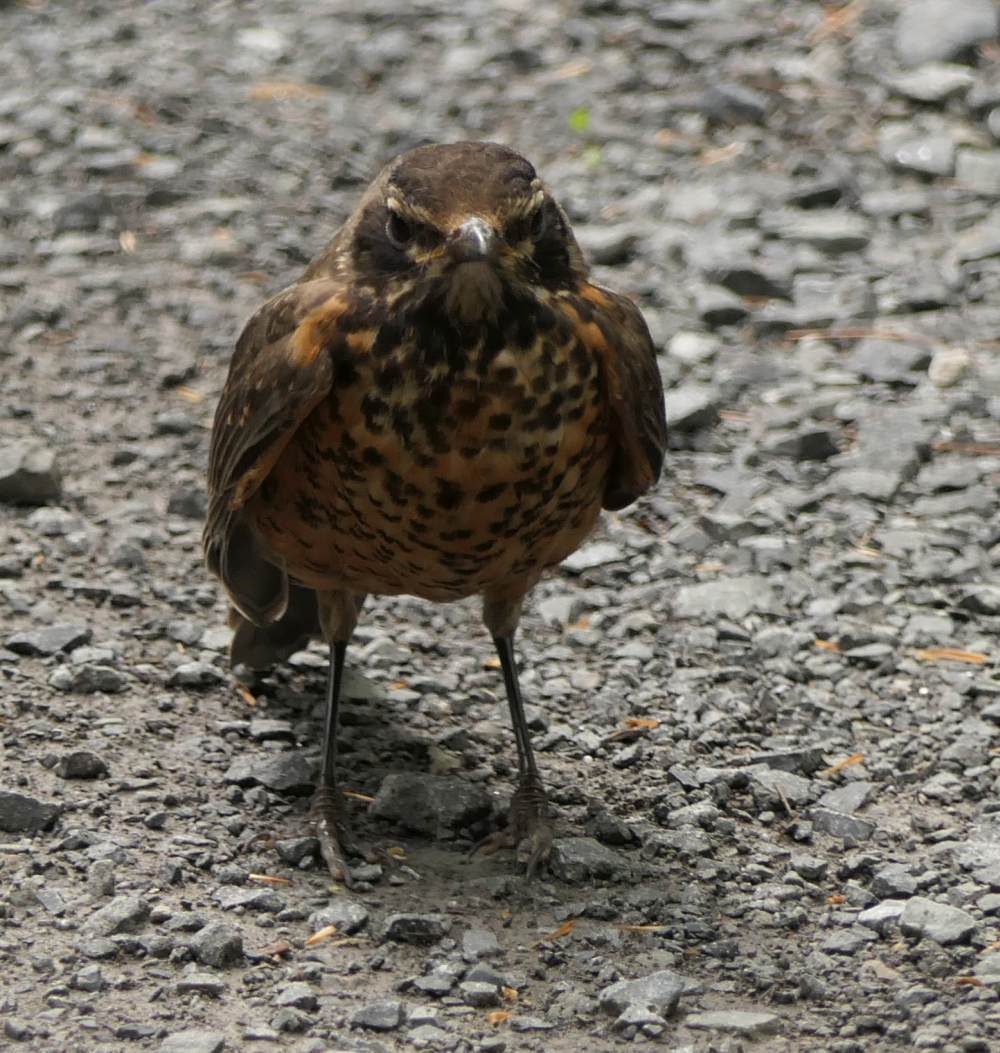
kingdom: Animalia
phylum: Chordata
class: Aves
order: Passeriformes
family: Turdidae
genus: Turdus
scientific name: Turdus migratorius
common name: American robin
